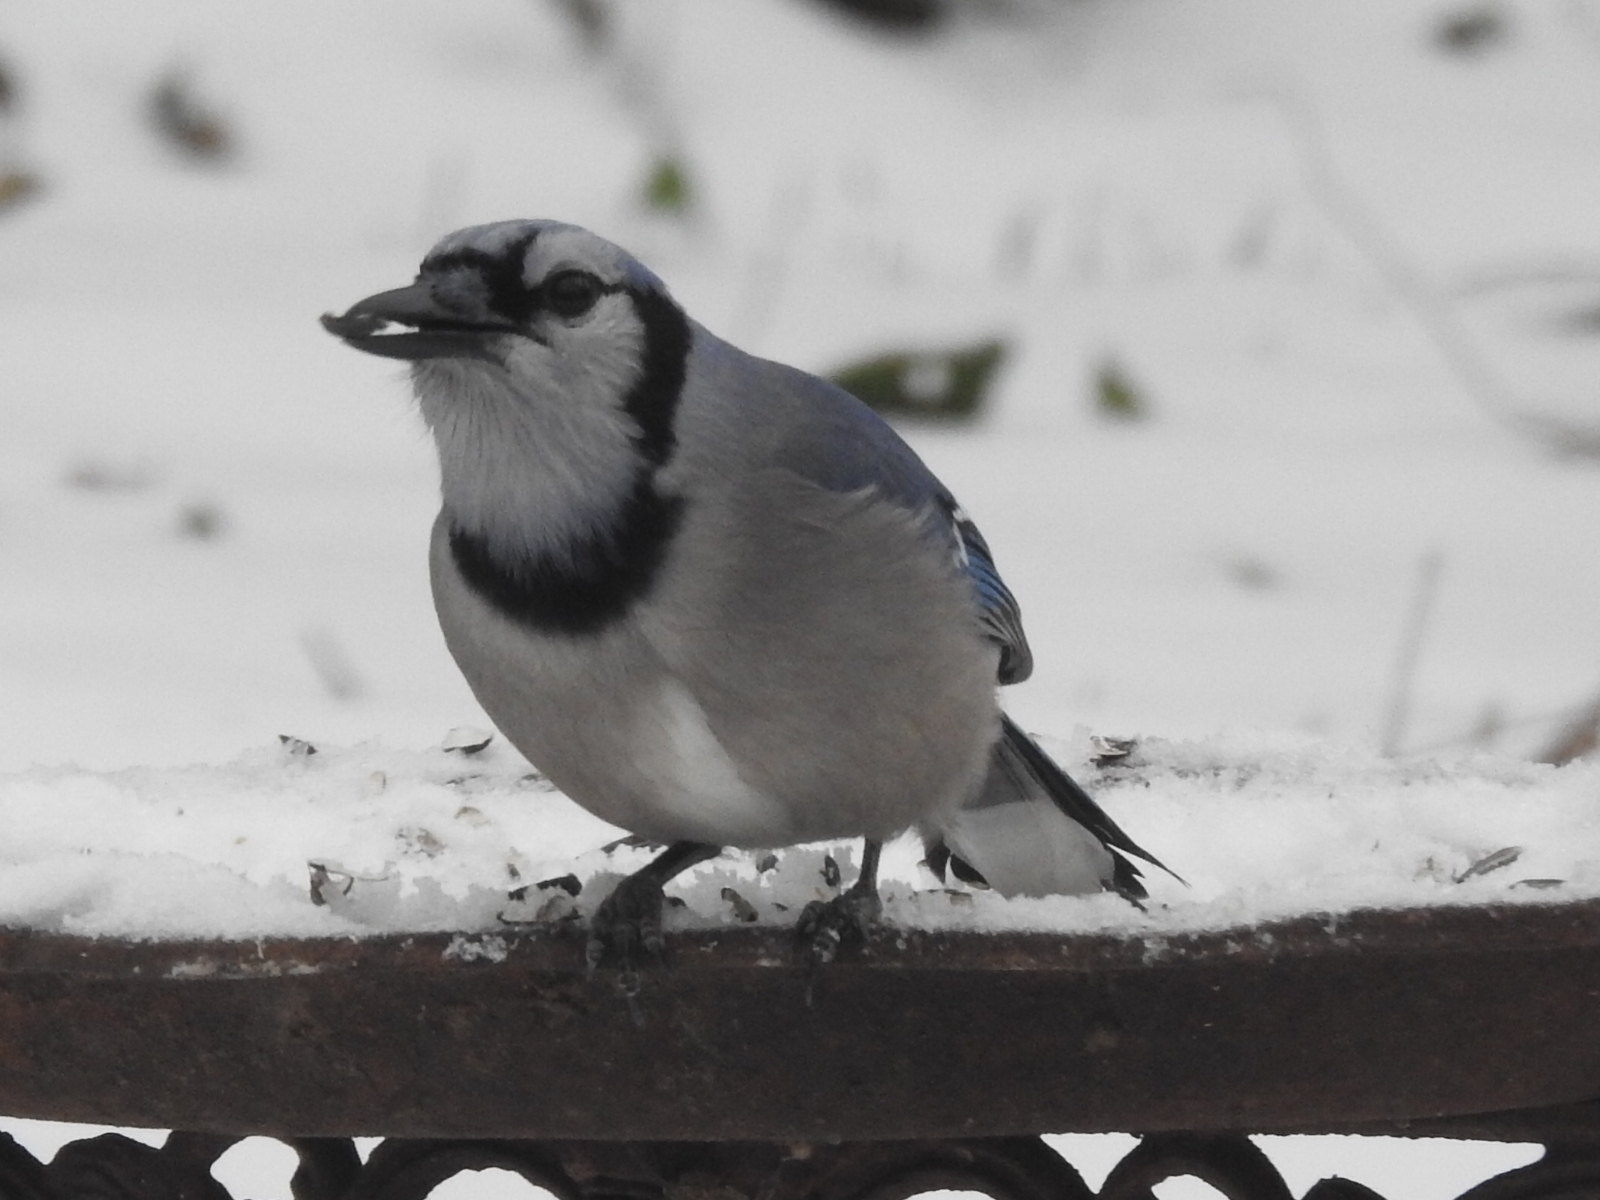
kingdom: Animalia
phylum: Chordata
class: Aves
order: Passeriformes
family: Corvidae
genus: Cyanocitta
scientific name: Cyanocitta cristata
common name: Blue jay
